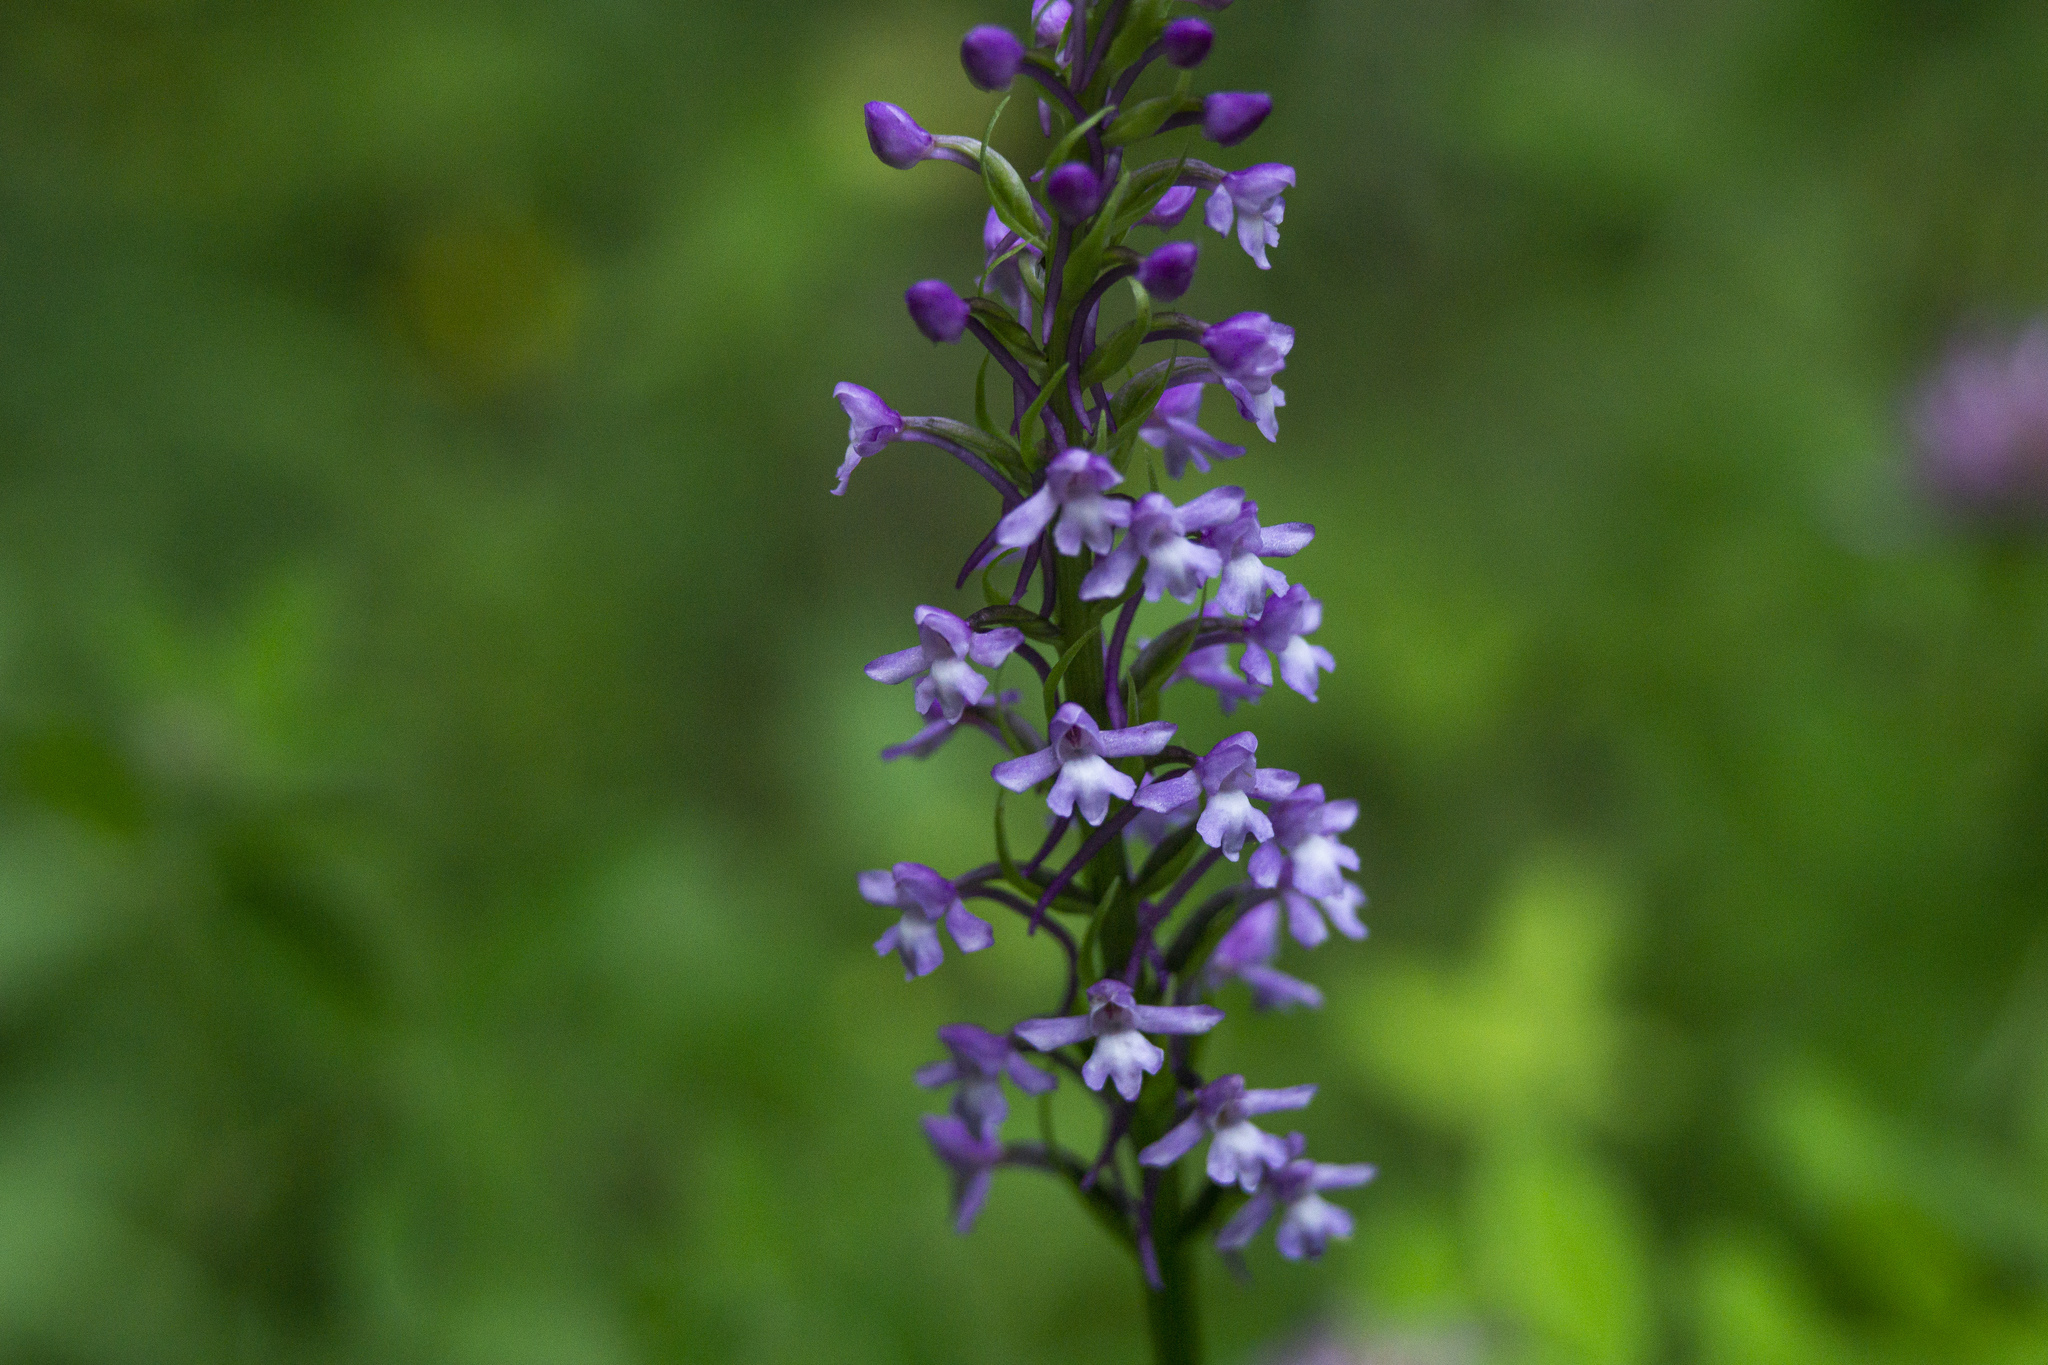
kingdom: Plantae
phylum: Tracheophyta
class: Liliopsida
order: Asparagales
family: Orchidaceae
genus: Gymnadenia
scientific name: Gymnadenia conopsea
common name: Fragrant orchid
